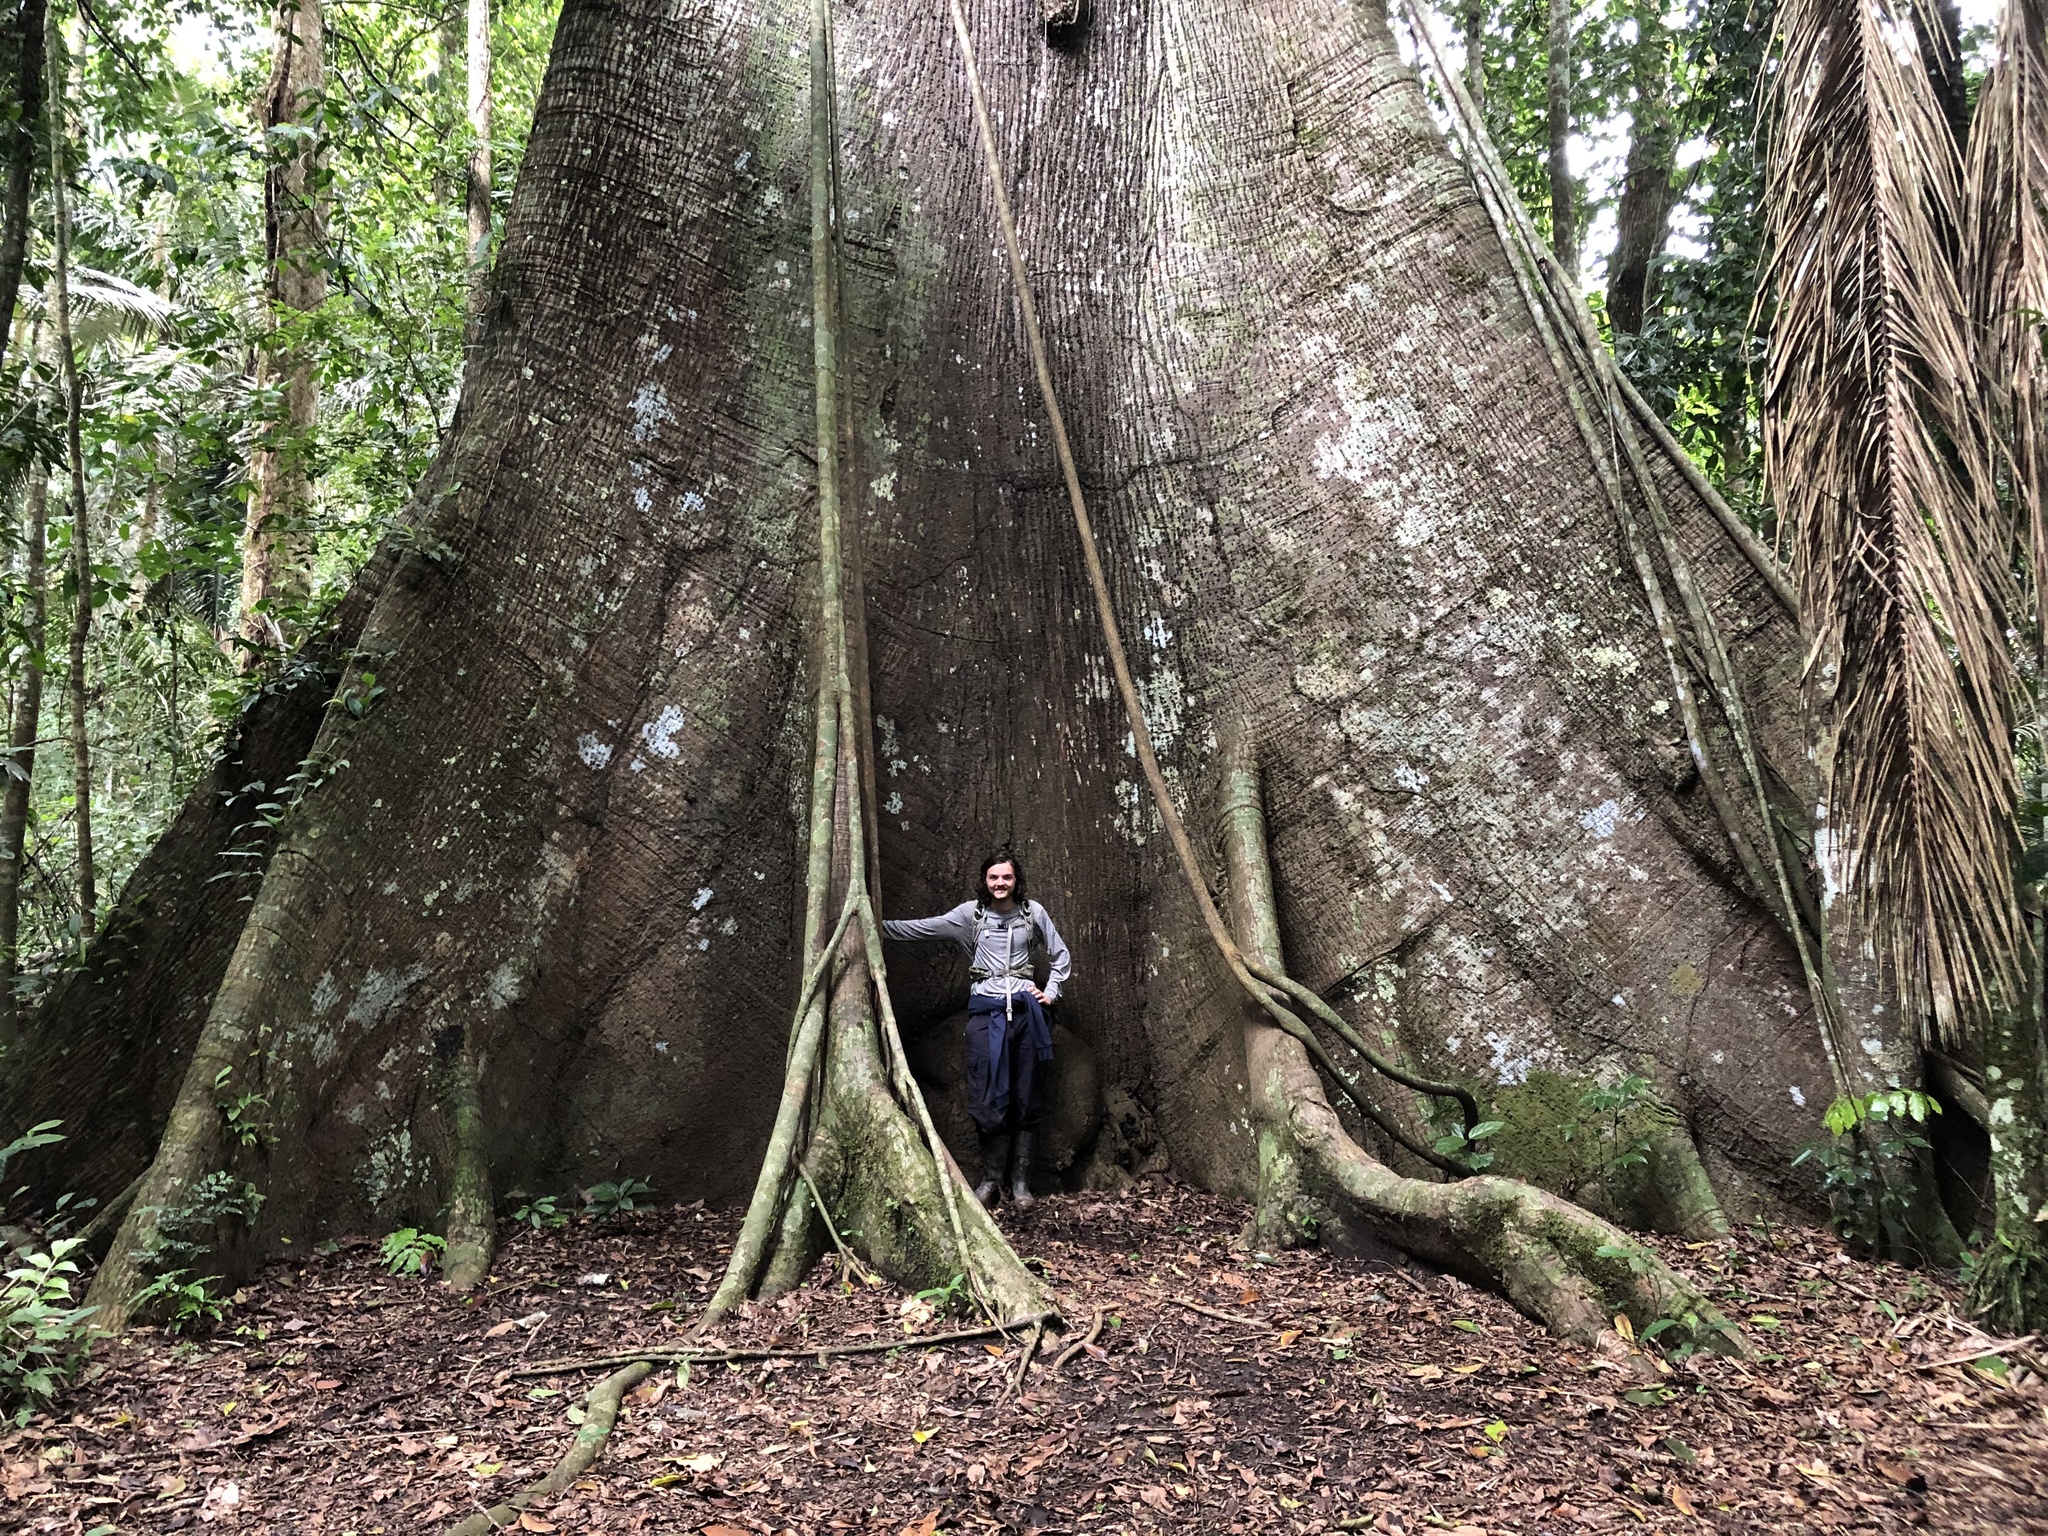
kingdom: Plantae
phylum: Tracheophyta
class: Magnoliopsida
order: Malvales
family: Malvaceae
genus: Ceiba
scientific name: Ceiba pentandra
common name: Kapok
